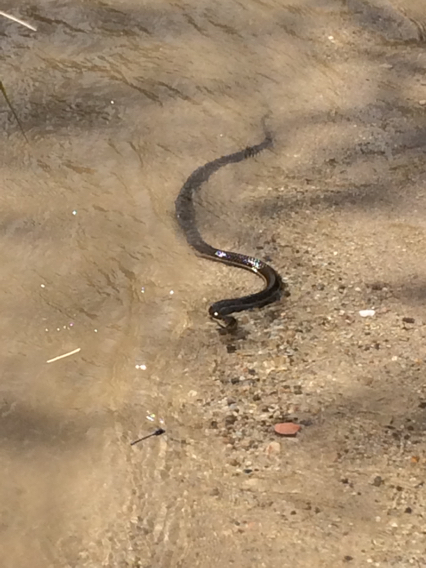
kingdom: Animalia
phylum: Chordata
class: Squamata
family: Colubridae
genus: Thamnophis
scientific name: Thamnophis hammondii
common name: Two-striped garter snake
